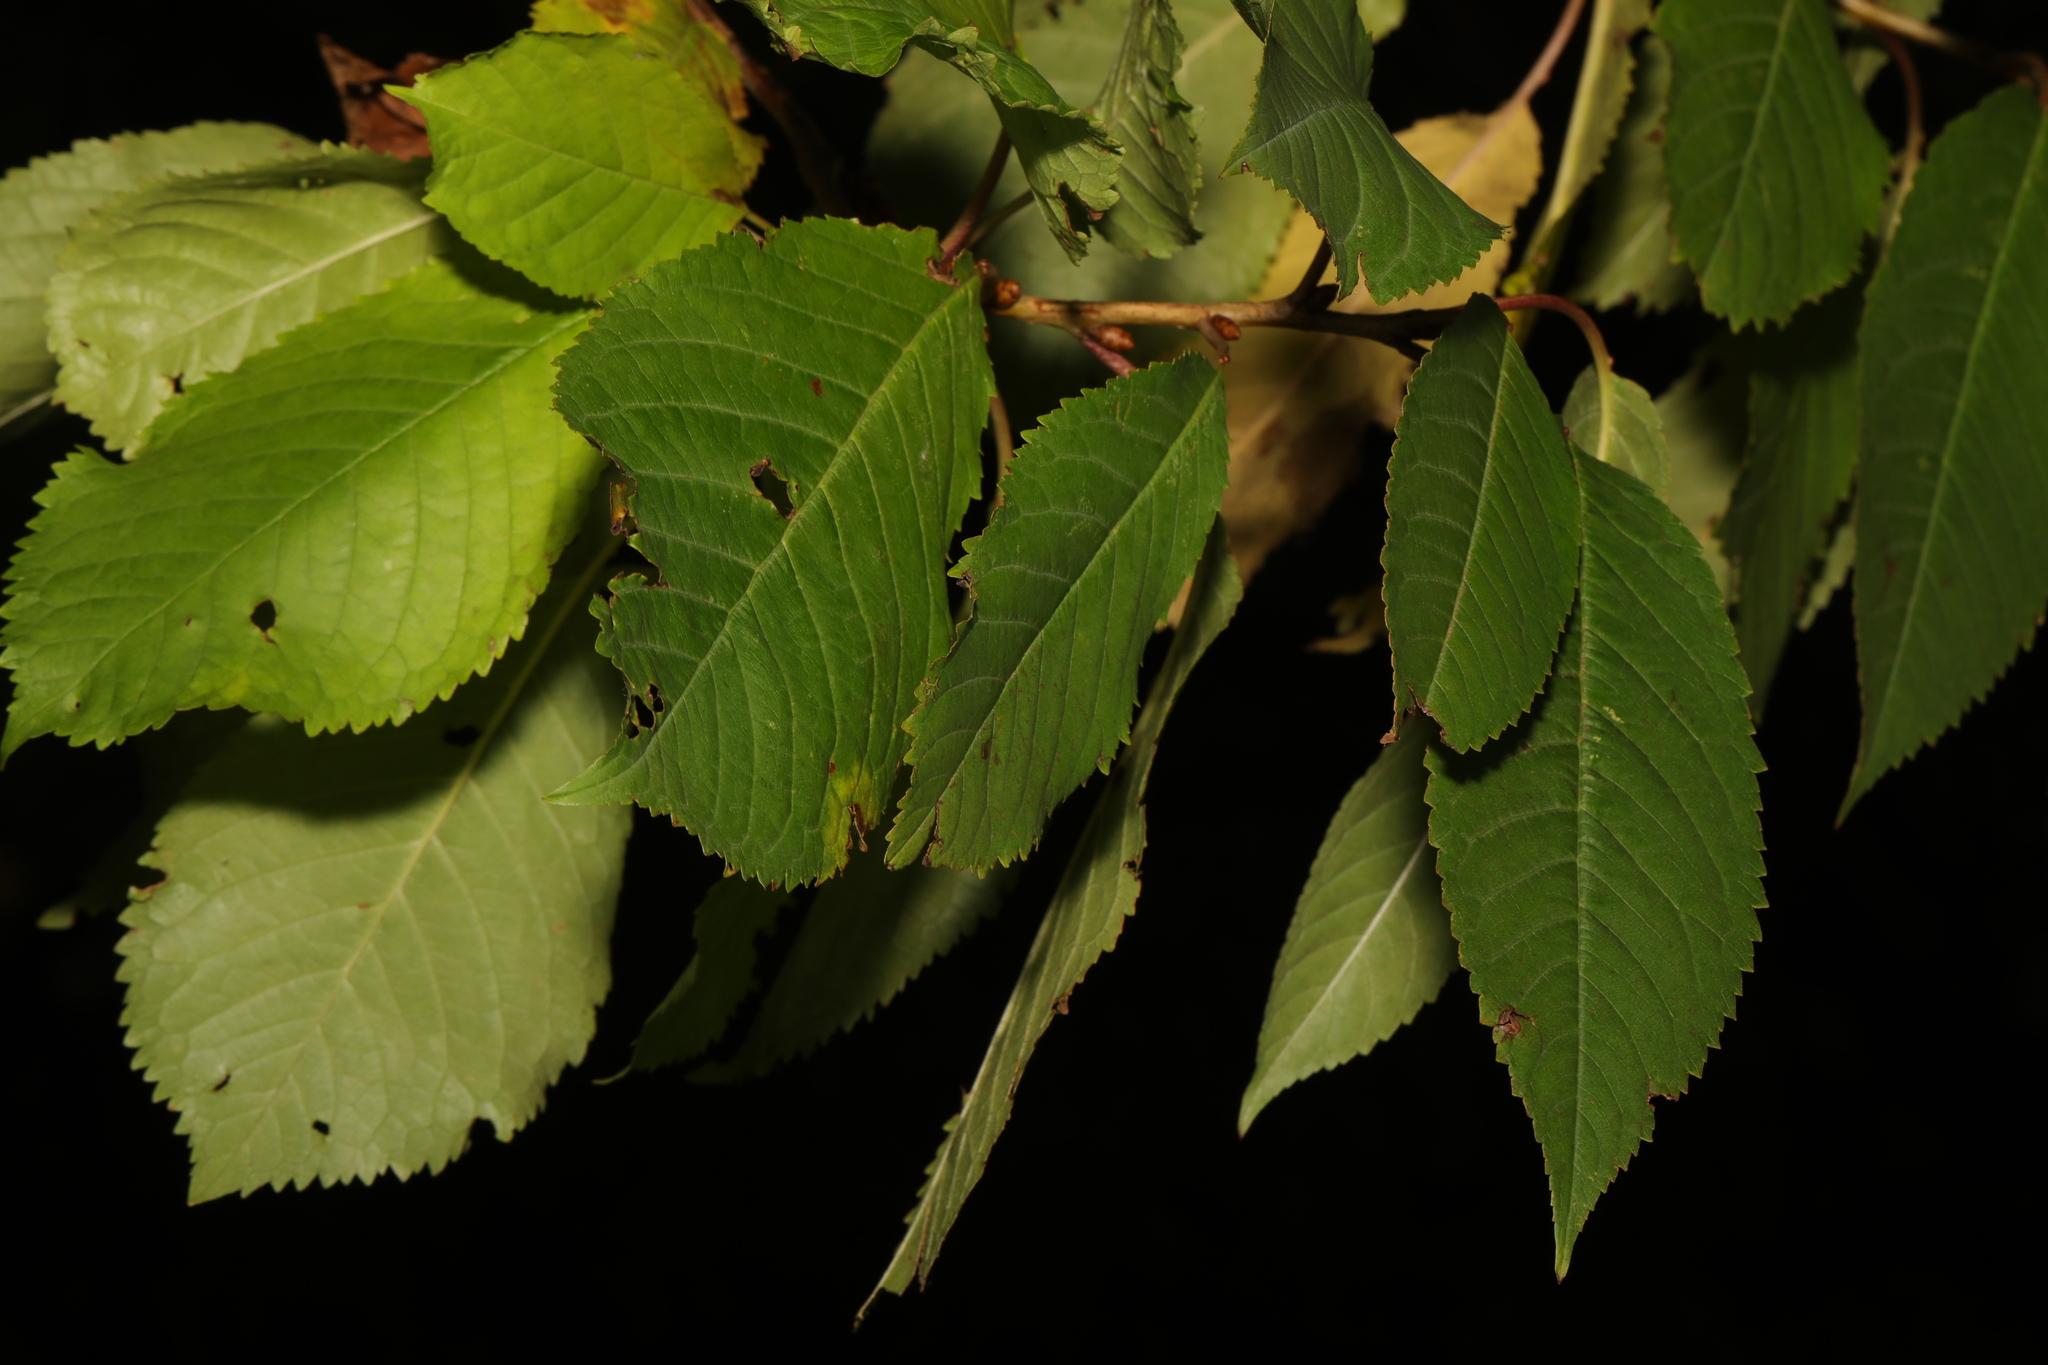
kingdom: Plantae
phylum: Tracheophyta
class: Magnoliopsida
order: Rosales
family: Rosaceae
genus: Prunus
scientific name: Prunus avium
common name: Sweet cherry
